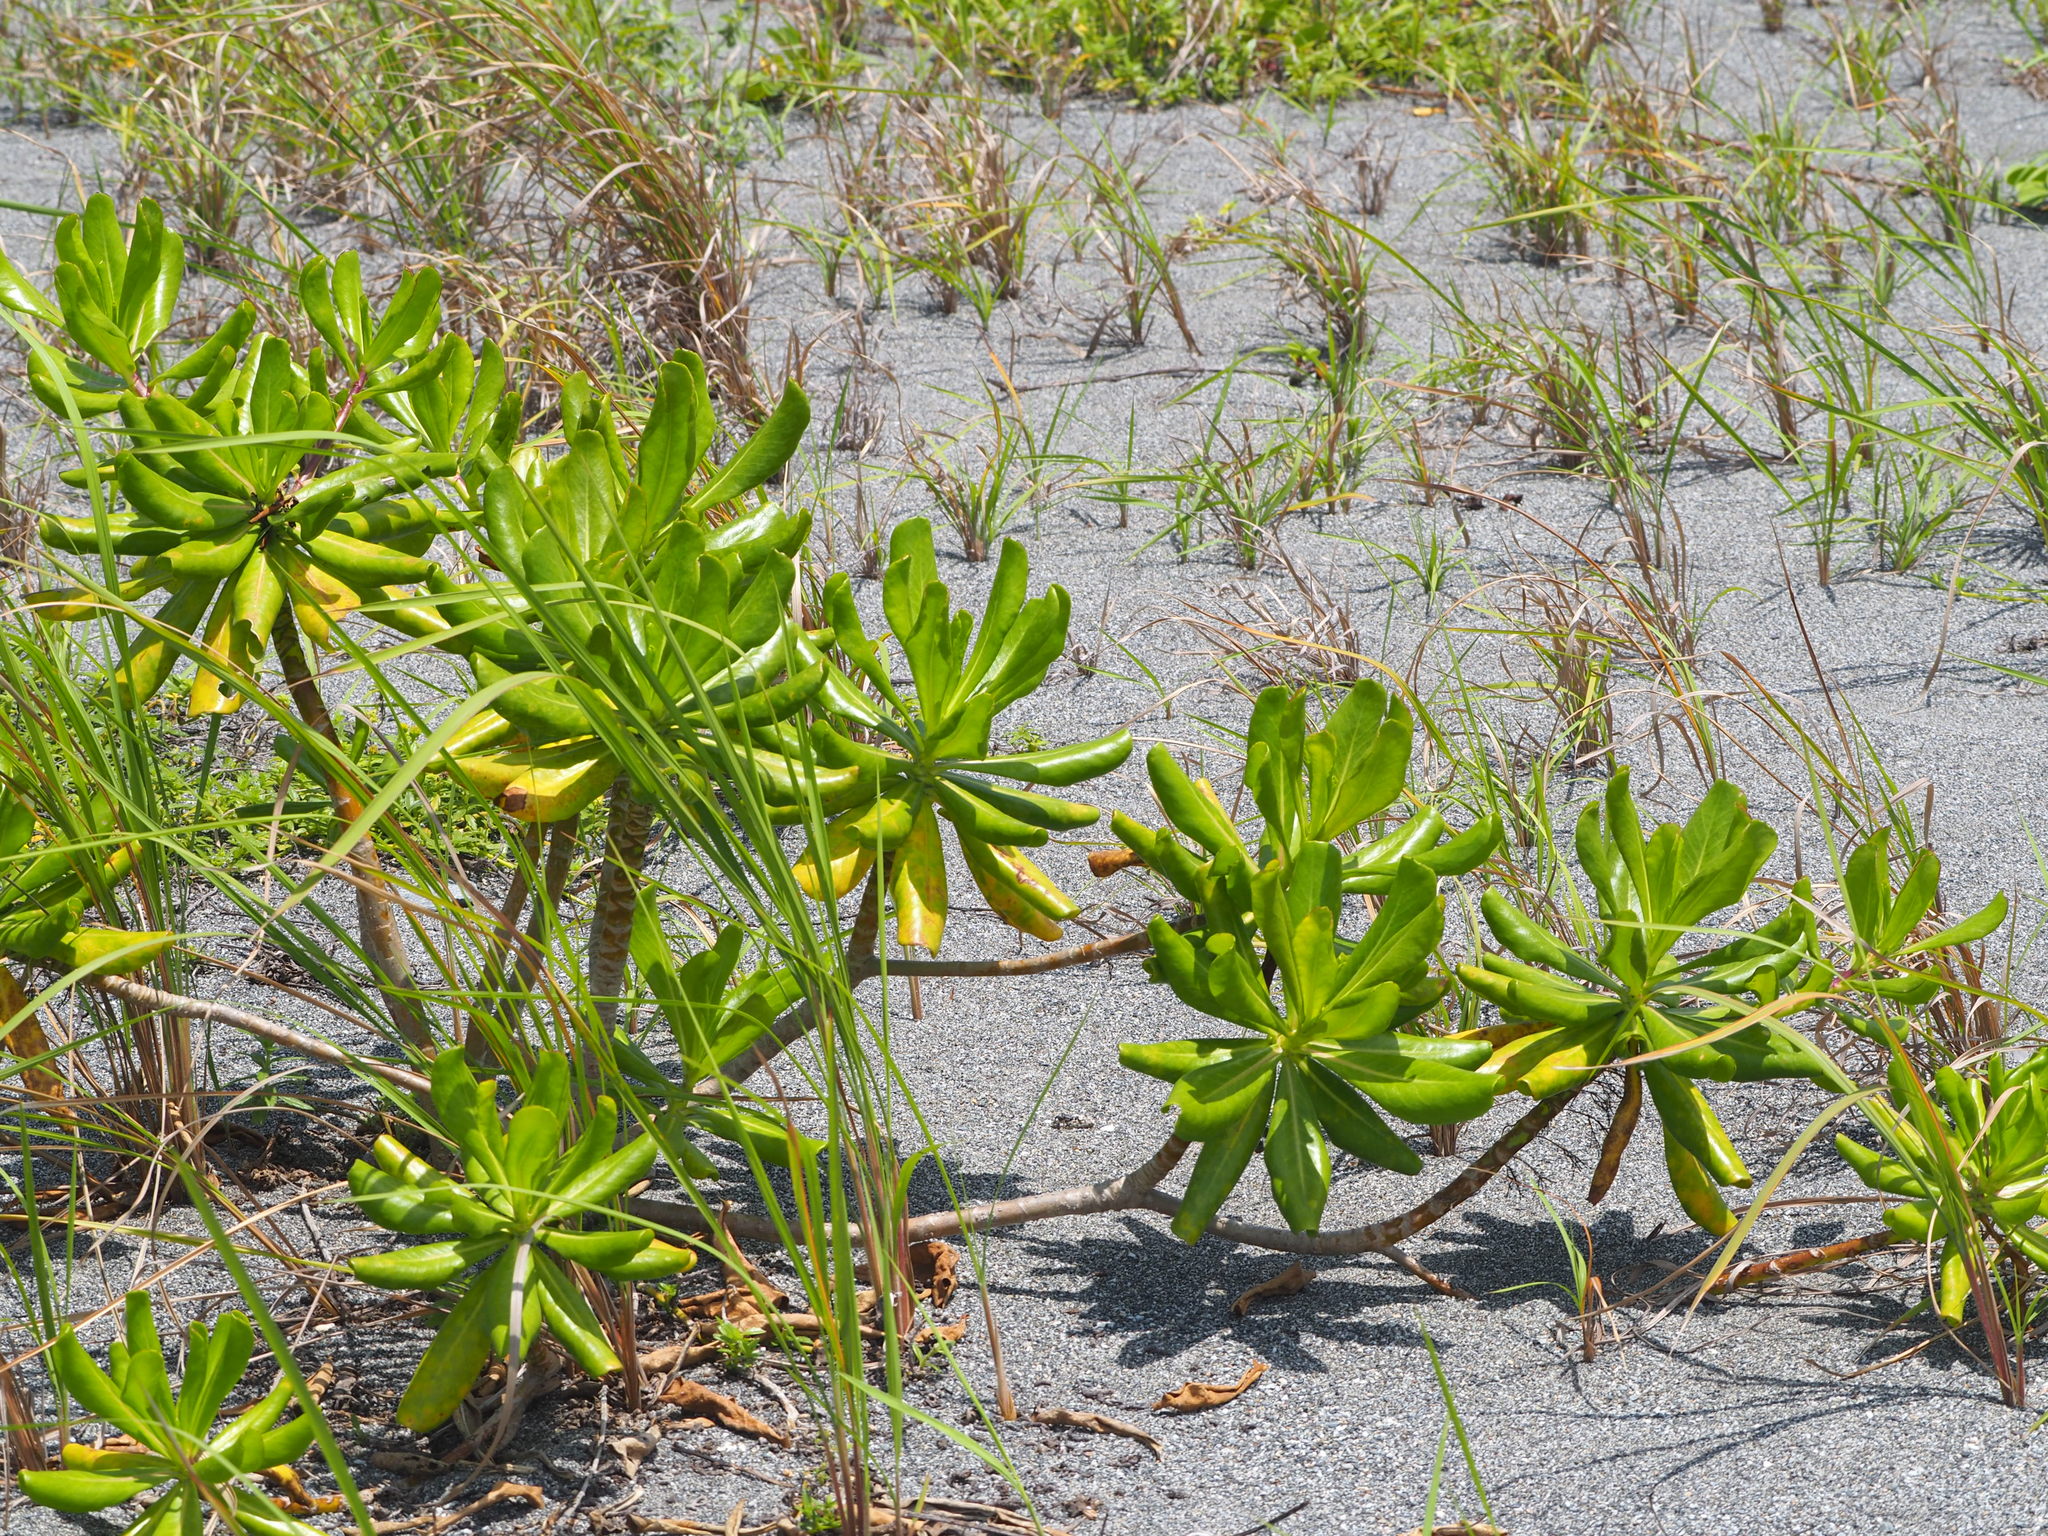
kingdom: Plantae
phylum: Tracheophyta
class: Magnoliopsida
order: Asterales
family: Goodeniaceae
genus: Scaevola
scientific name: Scaevola taccada
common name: Sea lettucetree
